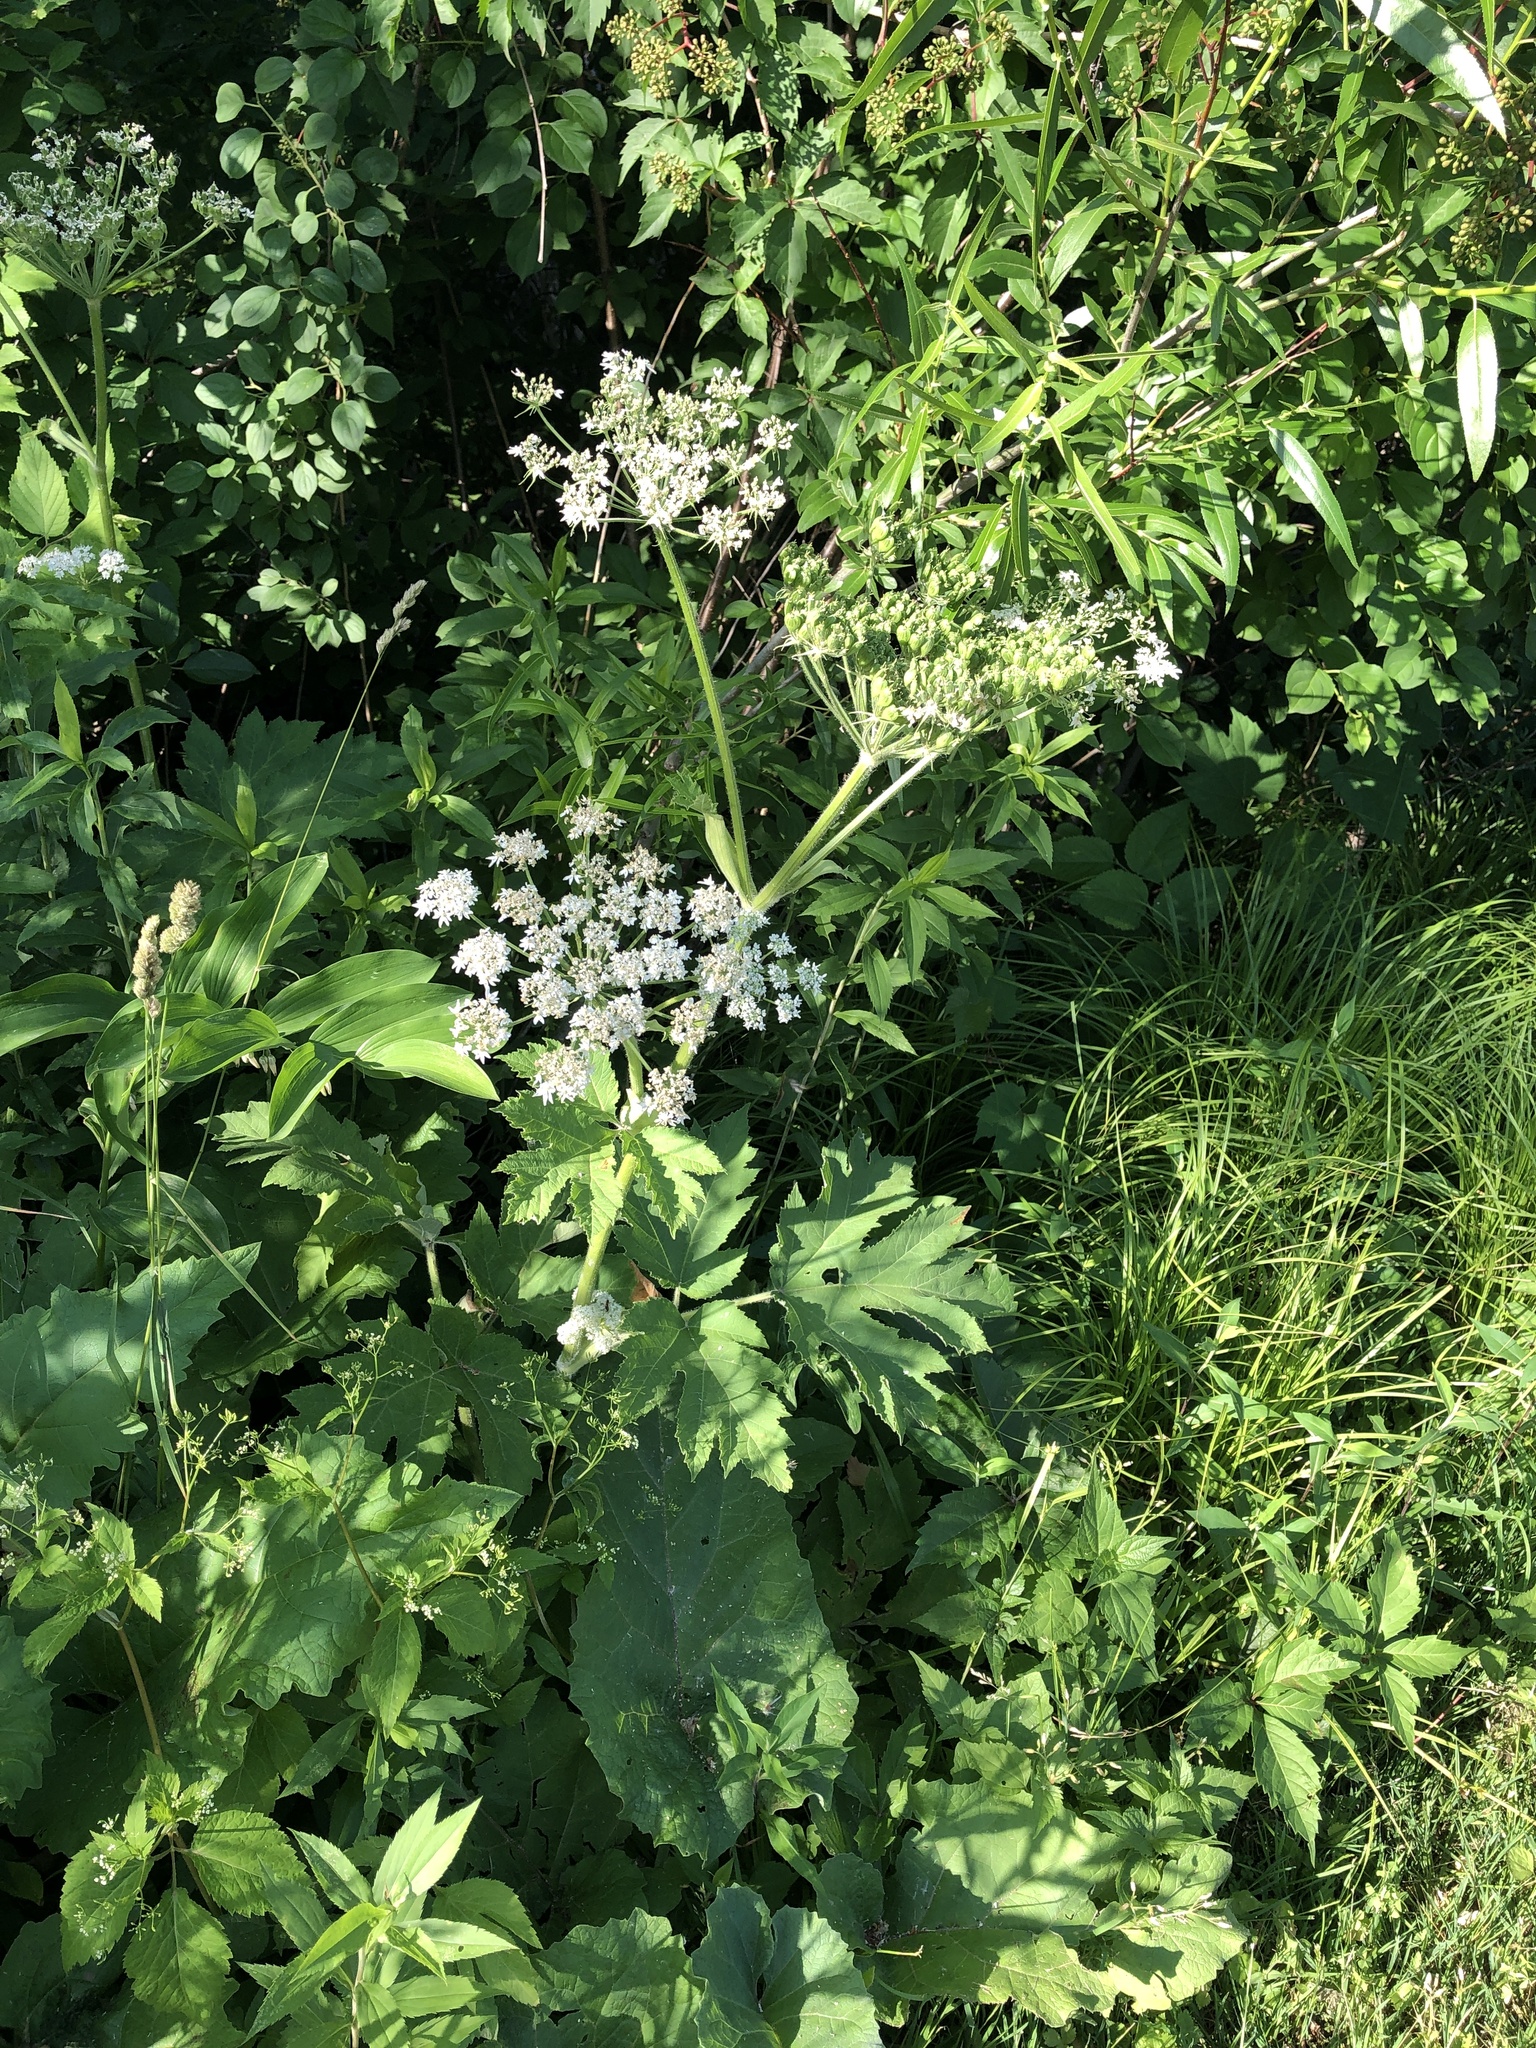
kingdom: Plantae
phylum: Tracheophyta
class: Magnoliopsida
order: Apiales
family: Apiaceae
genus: Heracleum
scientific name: Heracleum maximum
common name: American cow parsnip
